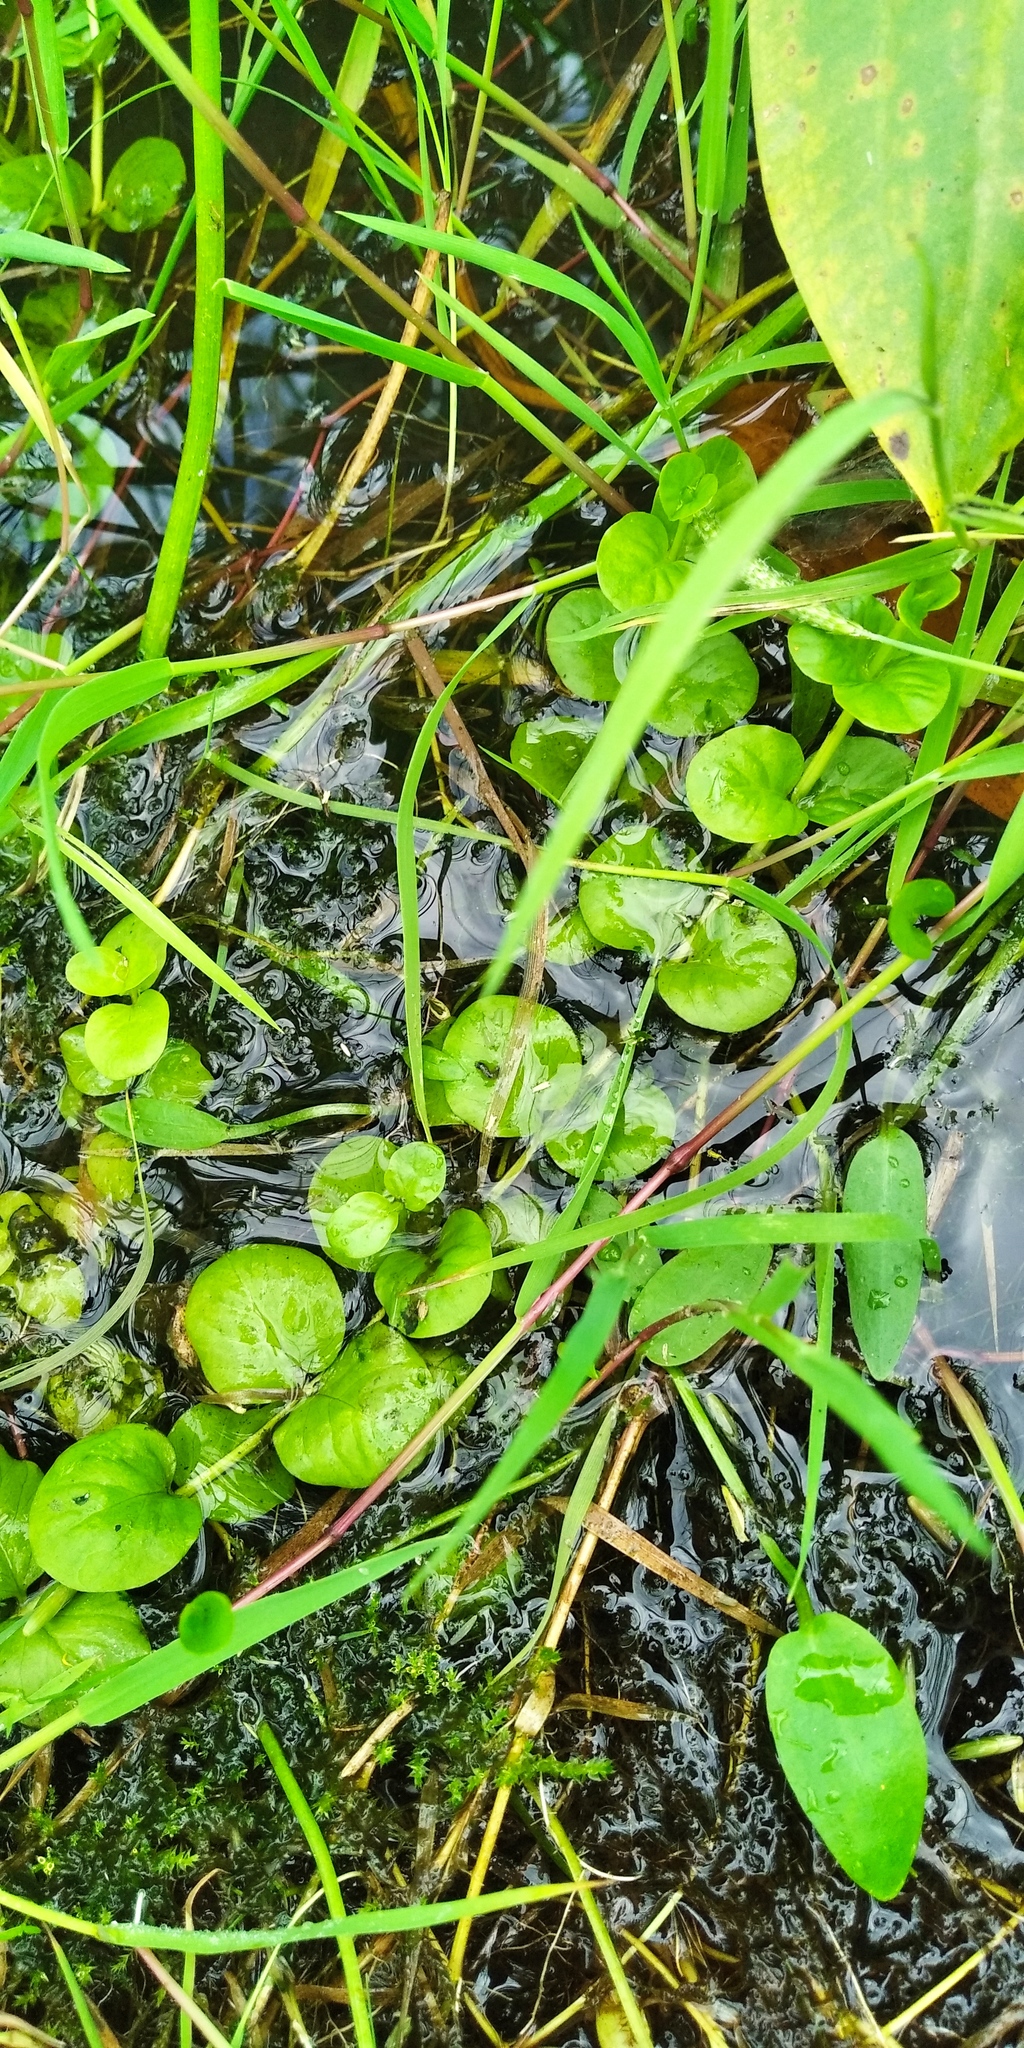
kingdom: Plantae
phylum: Tracheophyta
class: Magnoliopsida
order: Ericales
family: Primulaceae
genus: Lysimachia
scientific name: Lysimachia nummularia
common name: Moneywort
